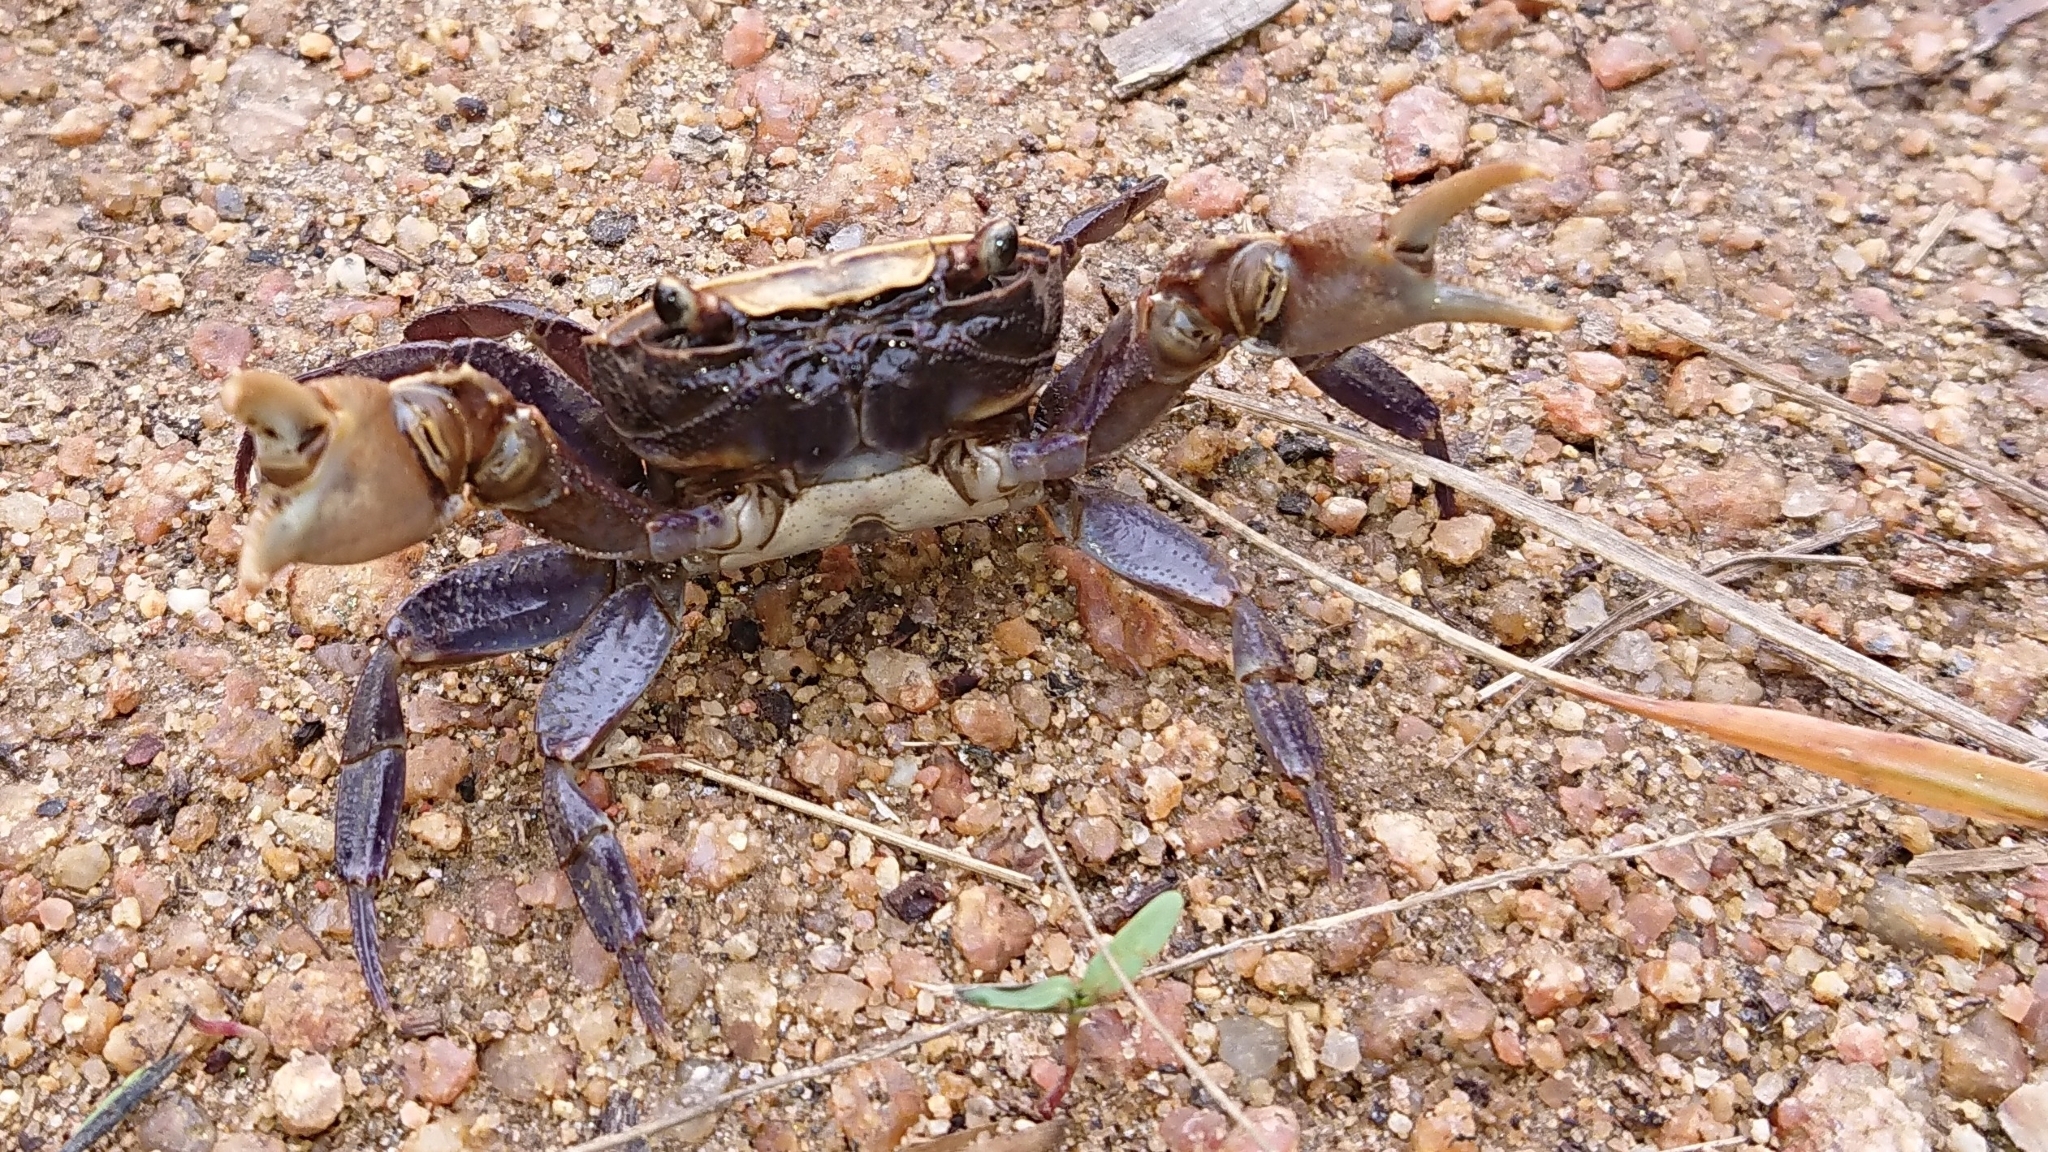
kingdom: Animalia
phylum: Arthropoda
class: Malacostraca
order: Decapoda
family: Potamonautidae
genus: Potamonautes
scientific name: Potamonautes sidneyi
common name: Natal river crab
